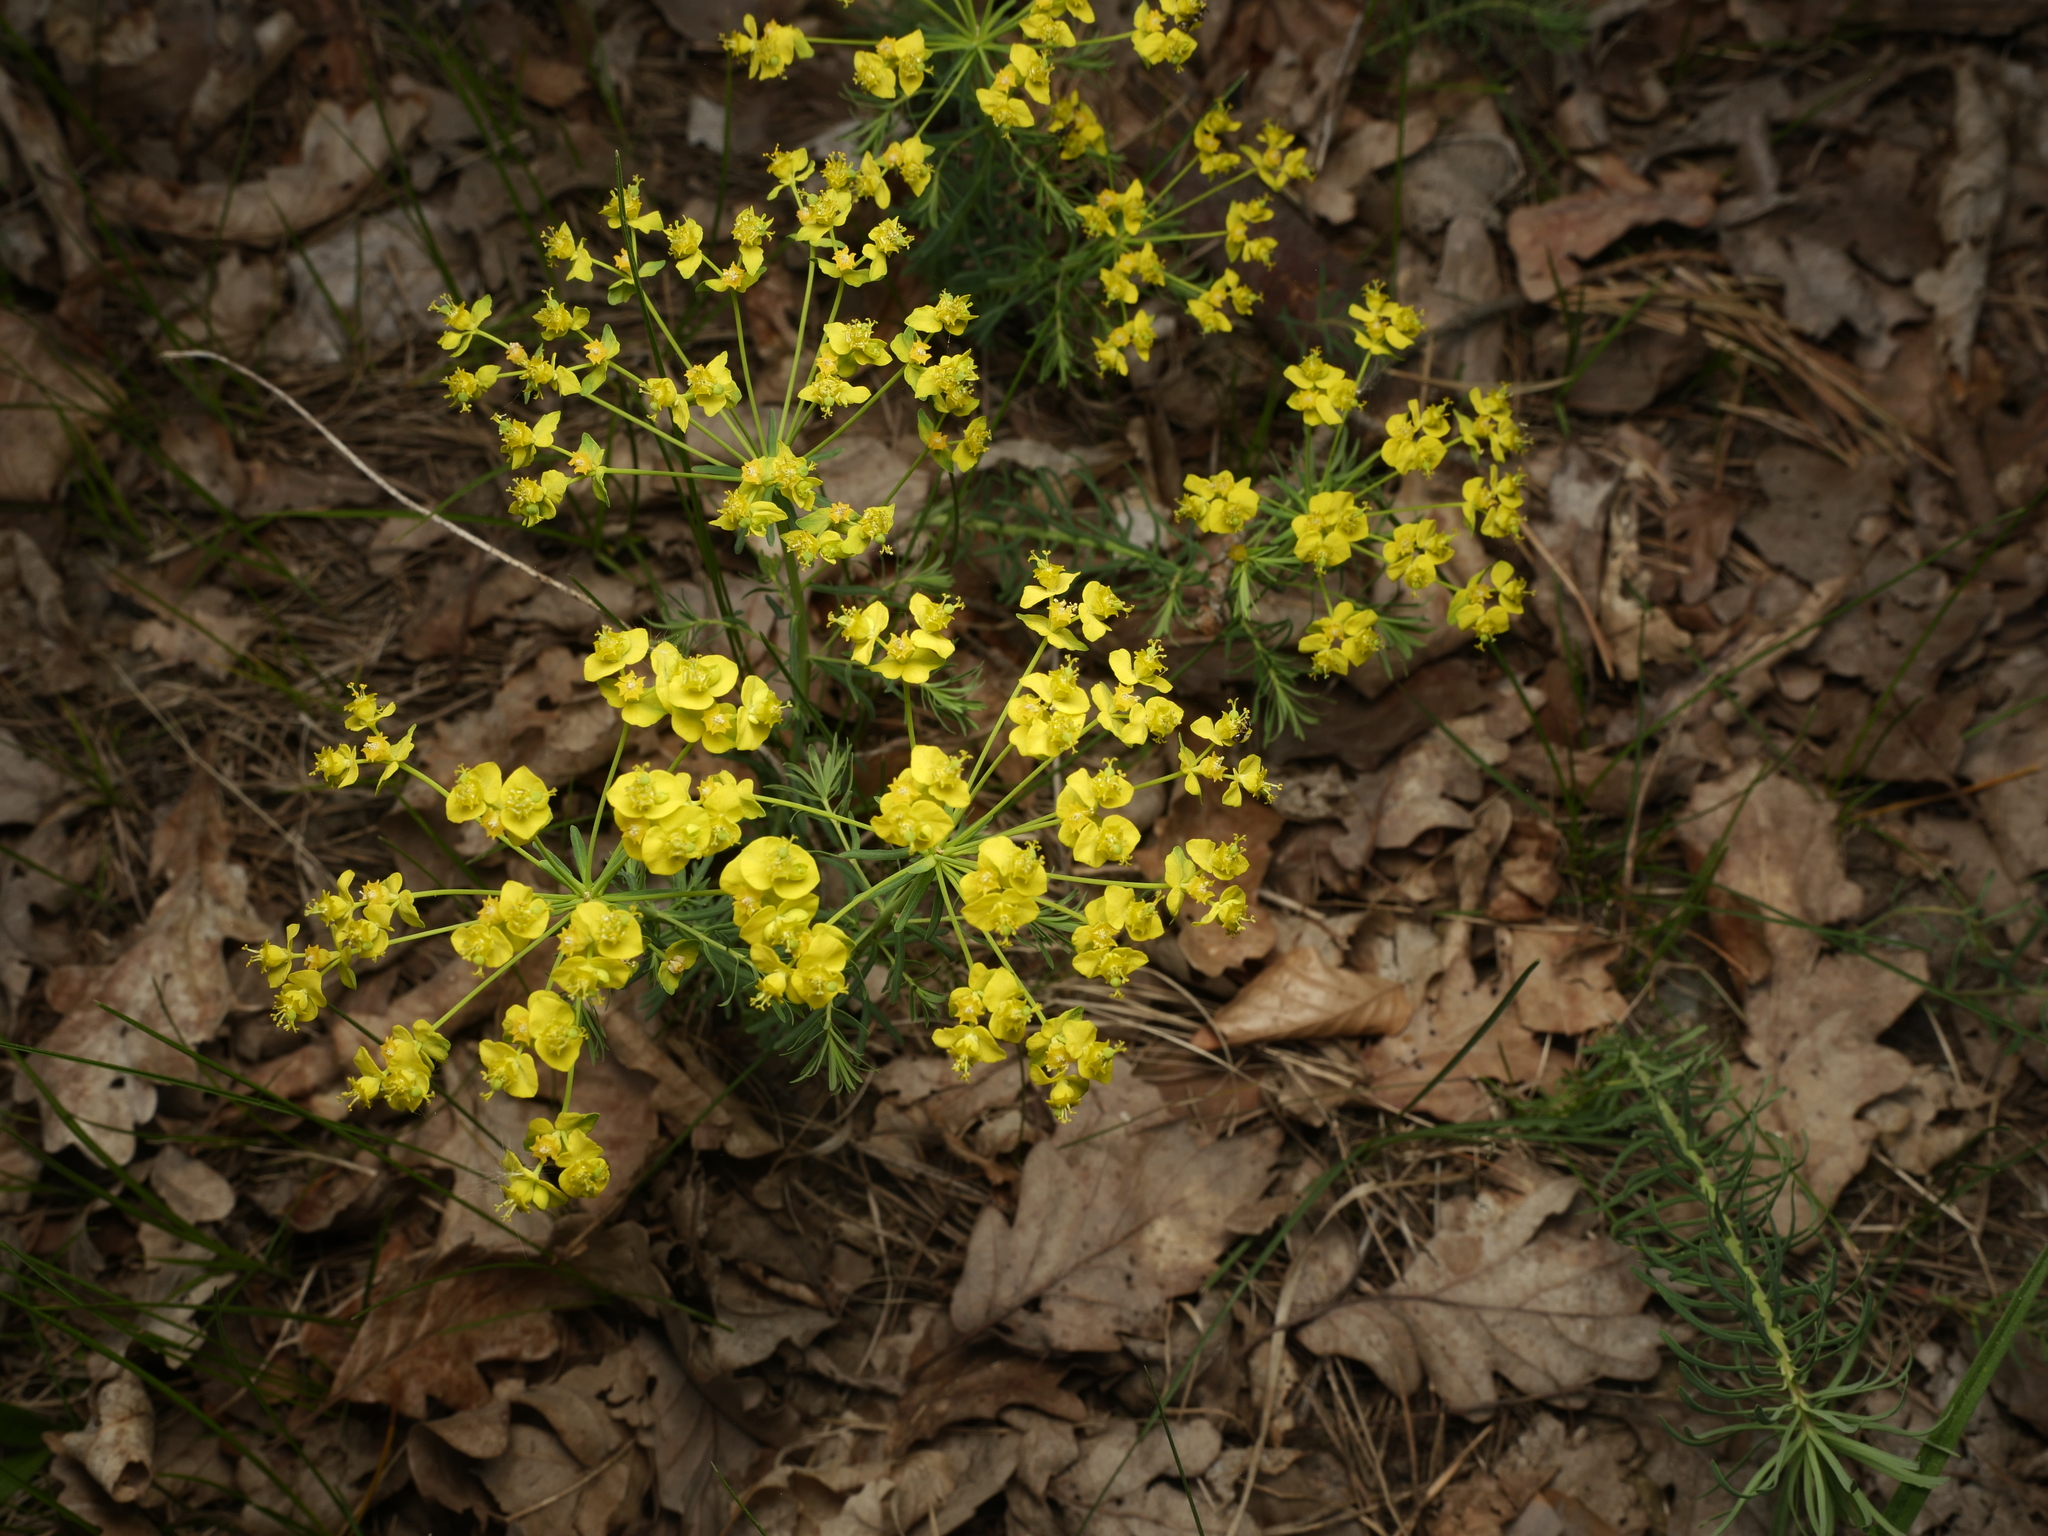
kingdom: Plantae
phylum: Tracheophyta
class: Magnoliopsida
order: Malpighiales
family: Euphorbiaceae
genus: Euphorbia
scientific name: Euphorbia cyparissias
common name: Cypress spurge
